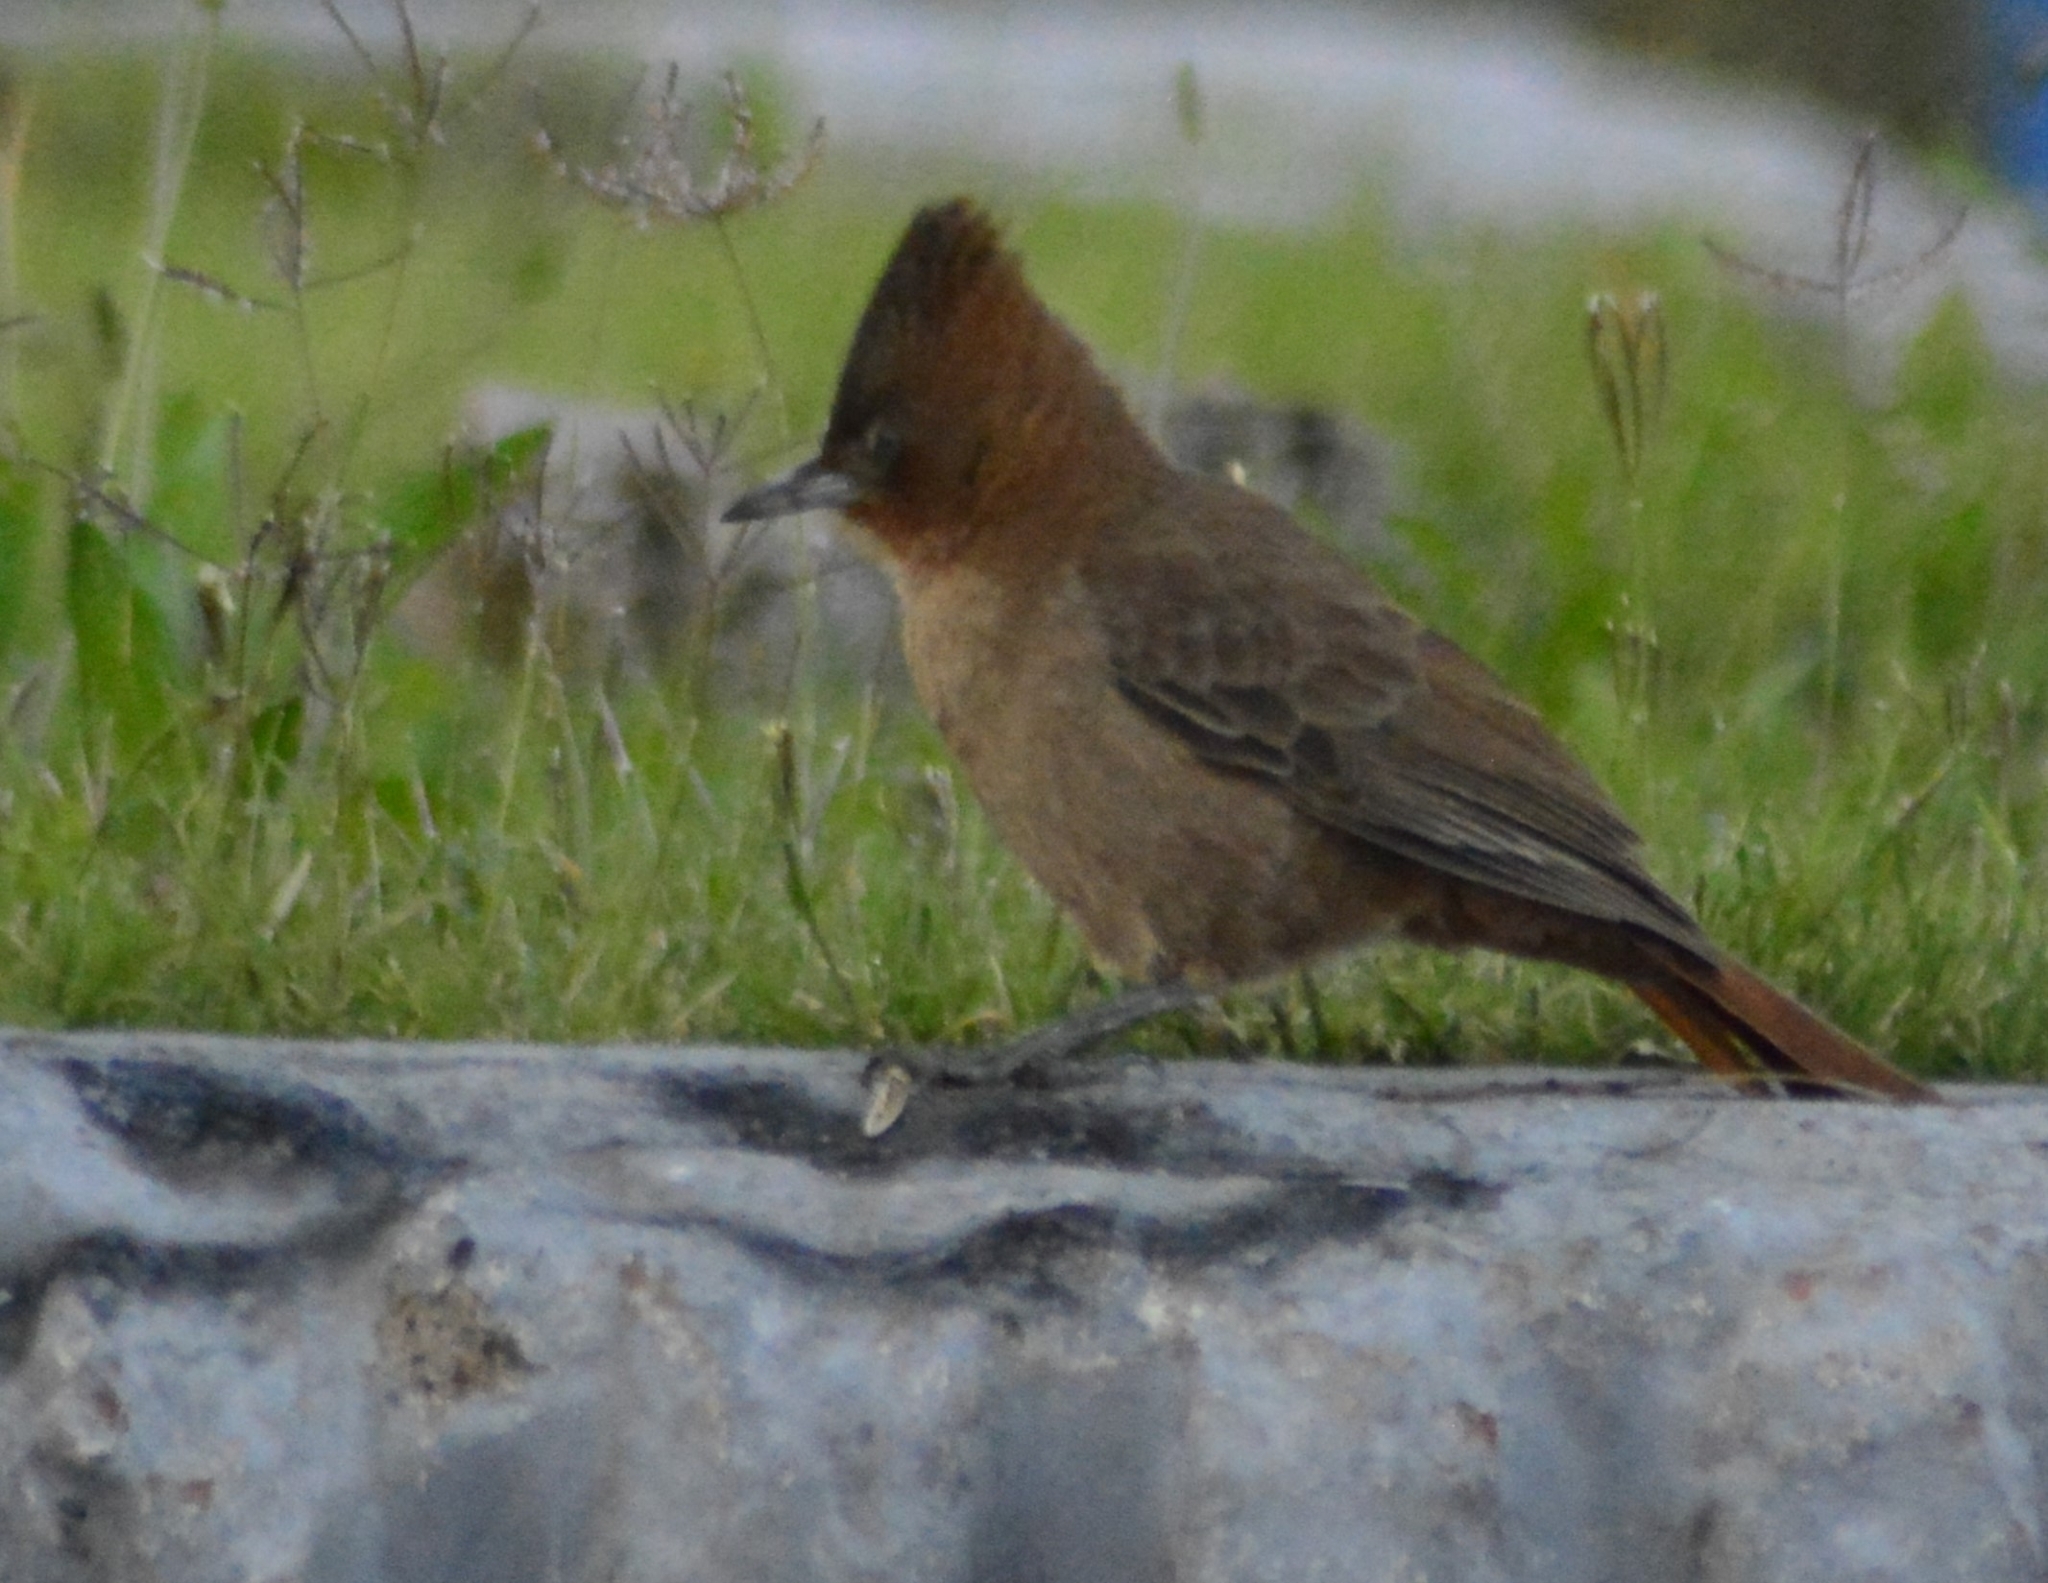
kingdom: Animalia
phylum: Chordata
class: Aves
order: Passeriformes
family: Furnariidae
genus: Pseudoseisura
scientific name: Pseudoseisura lophotes
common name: Brown cacholote
